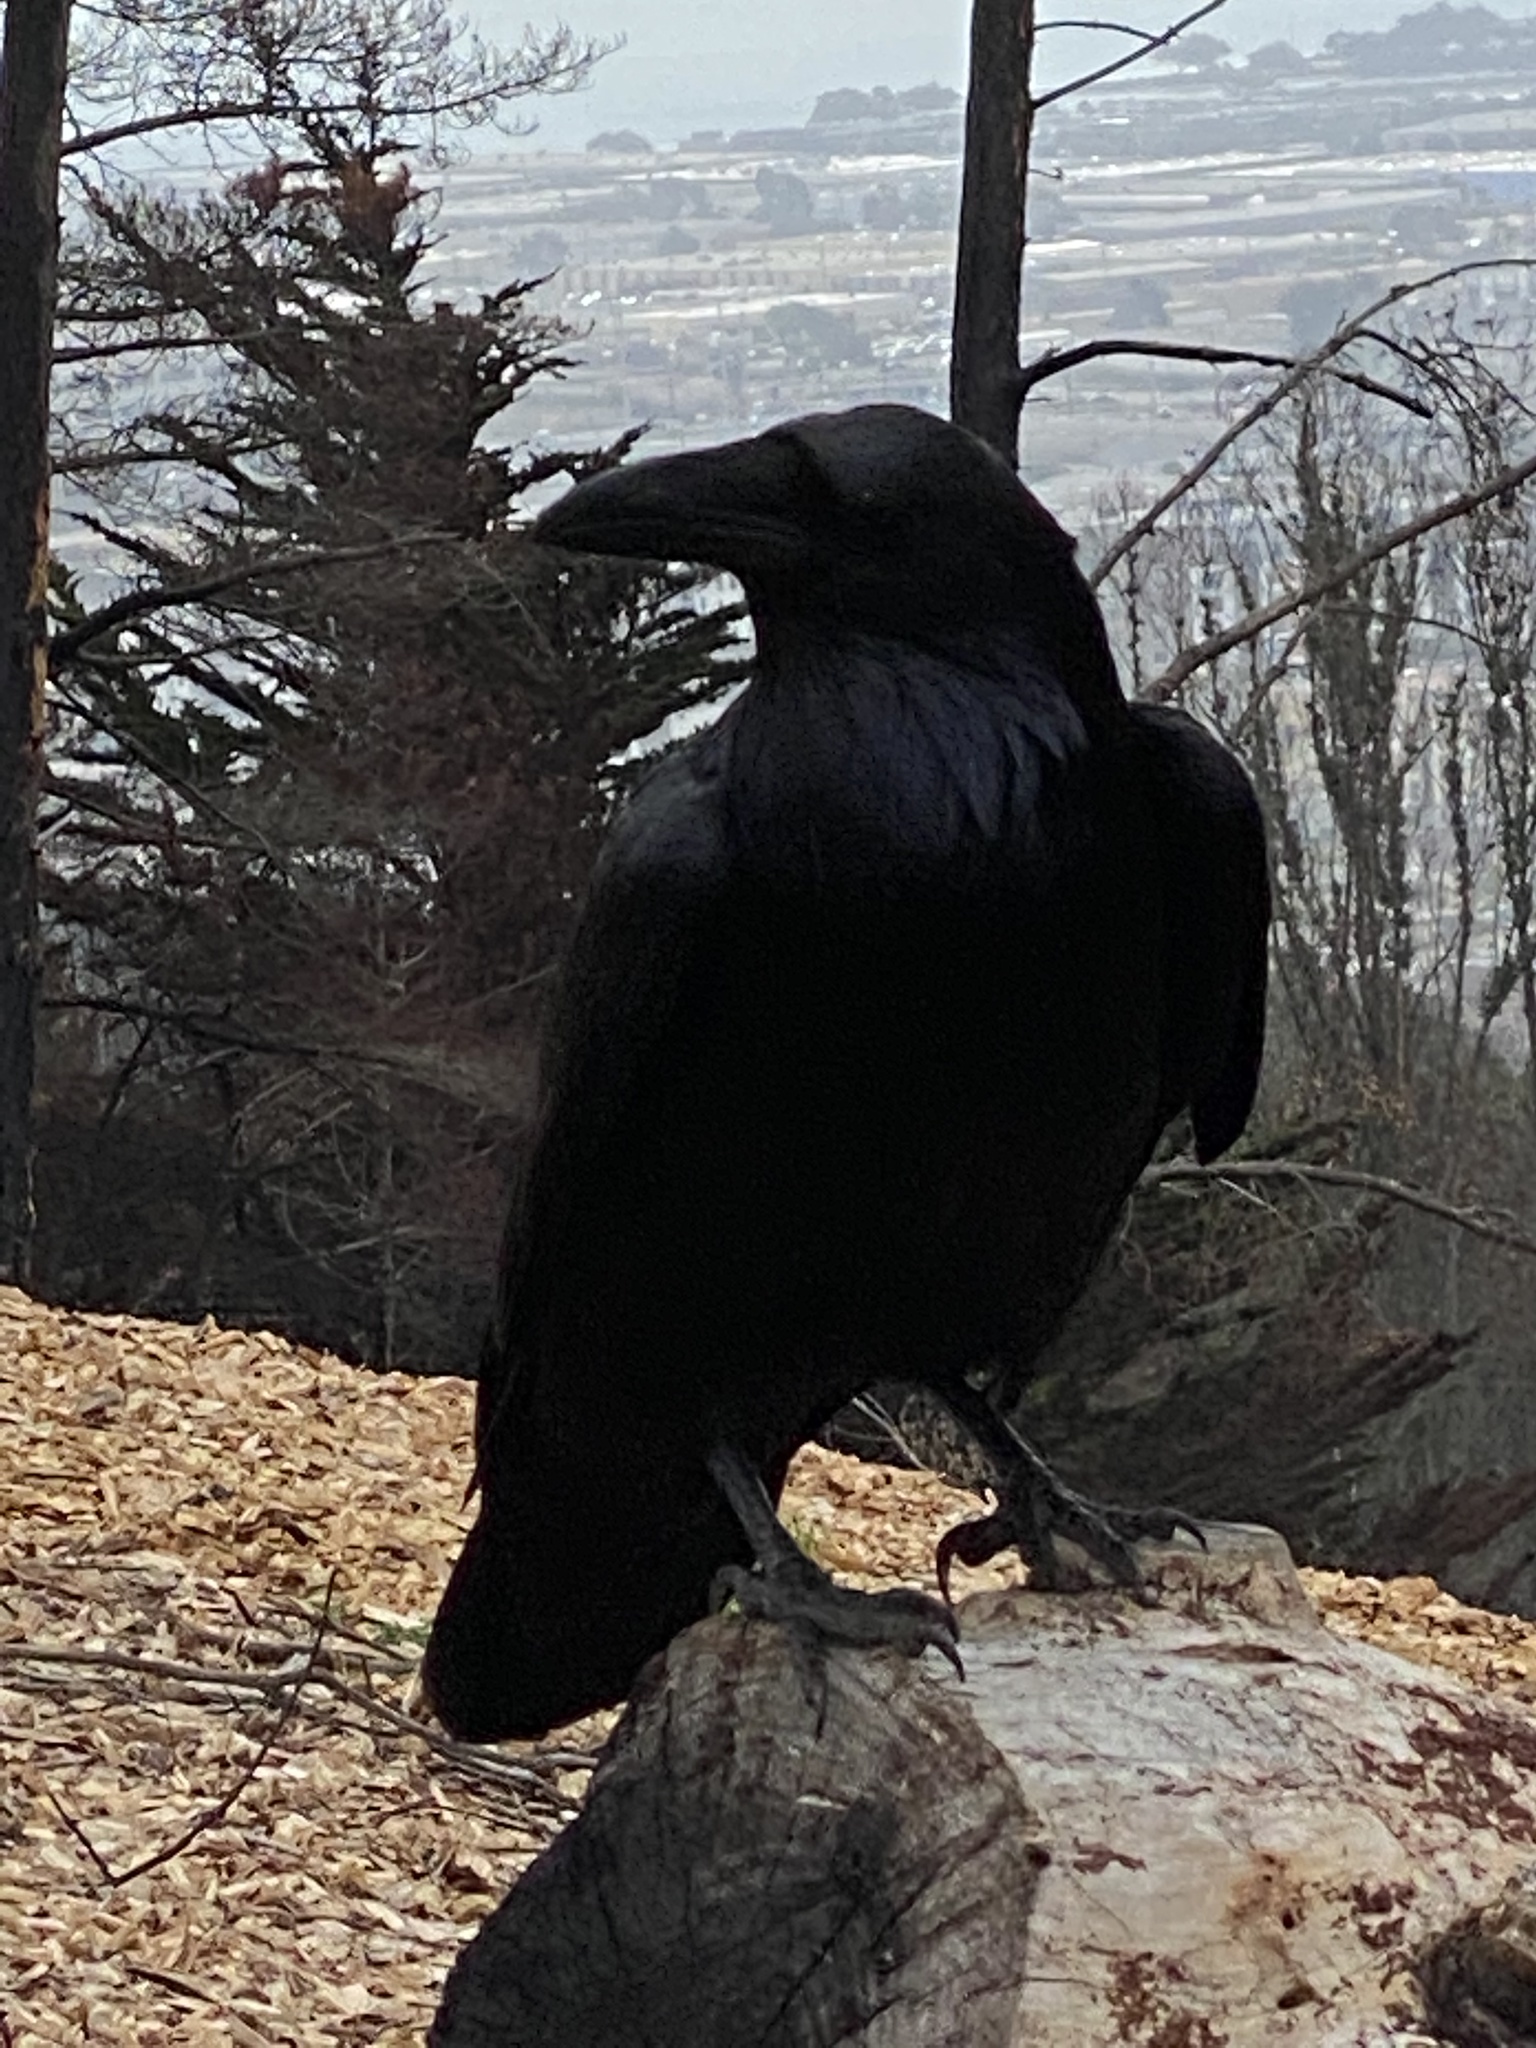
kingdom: Animalia
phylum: Chordata
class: Aves
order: Passeriformes
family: Corvidae
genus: Corvus
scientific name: Corvus corax
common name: Common raven
